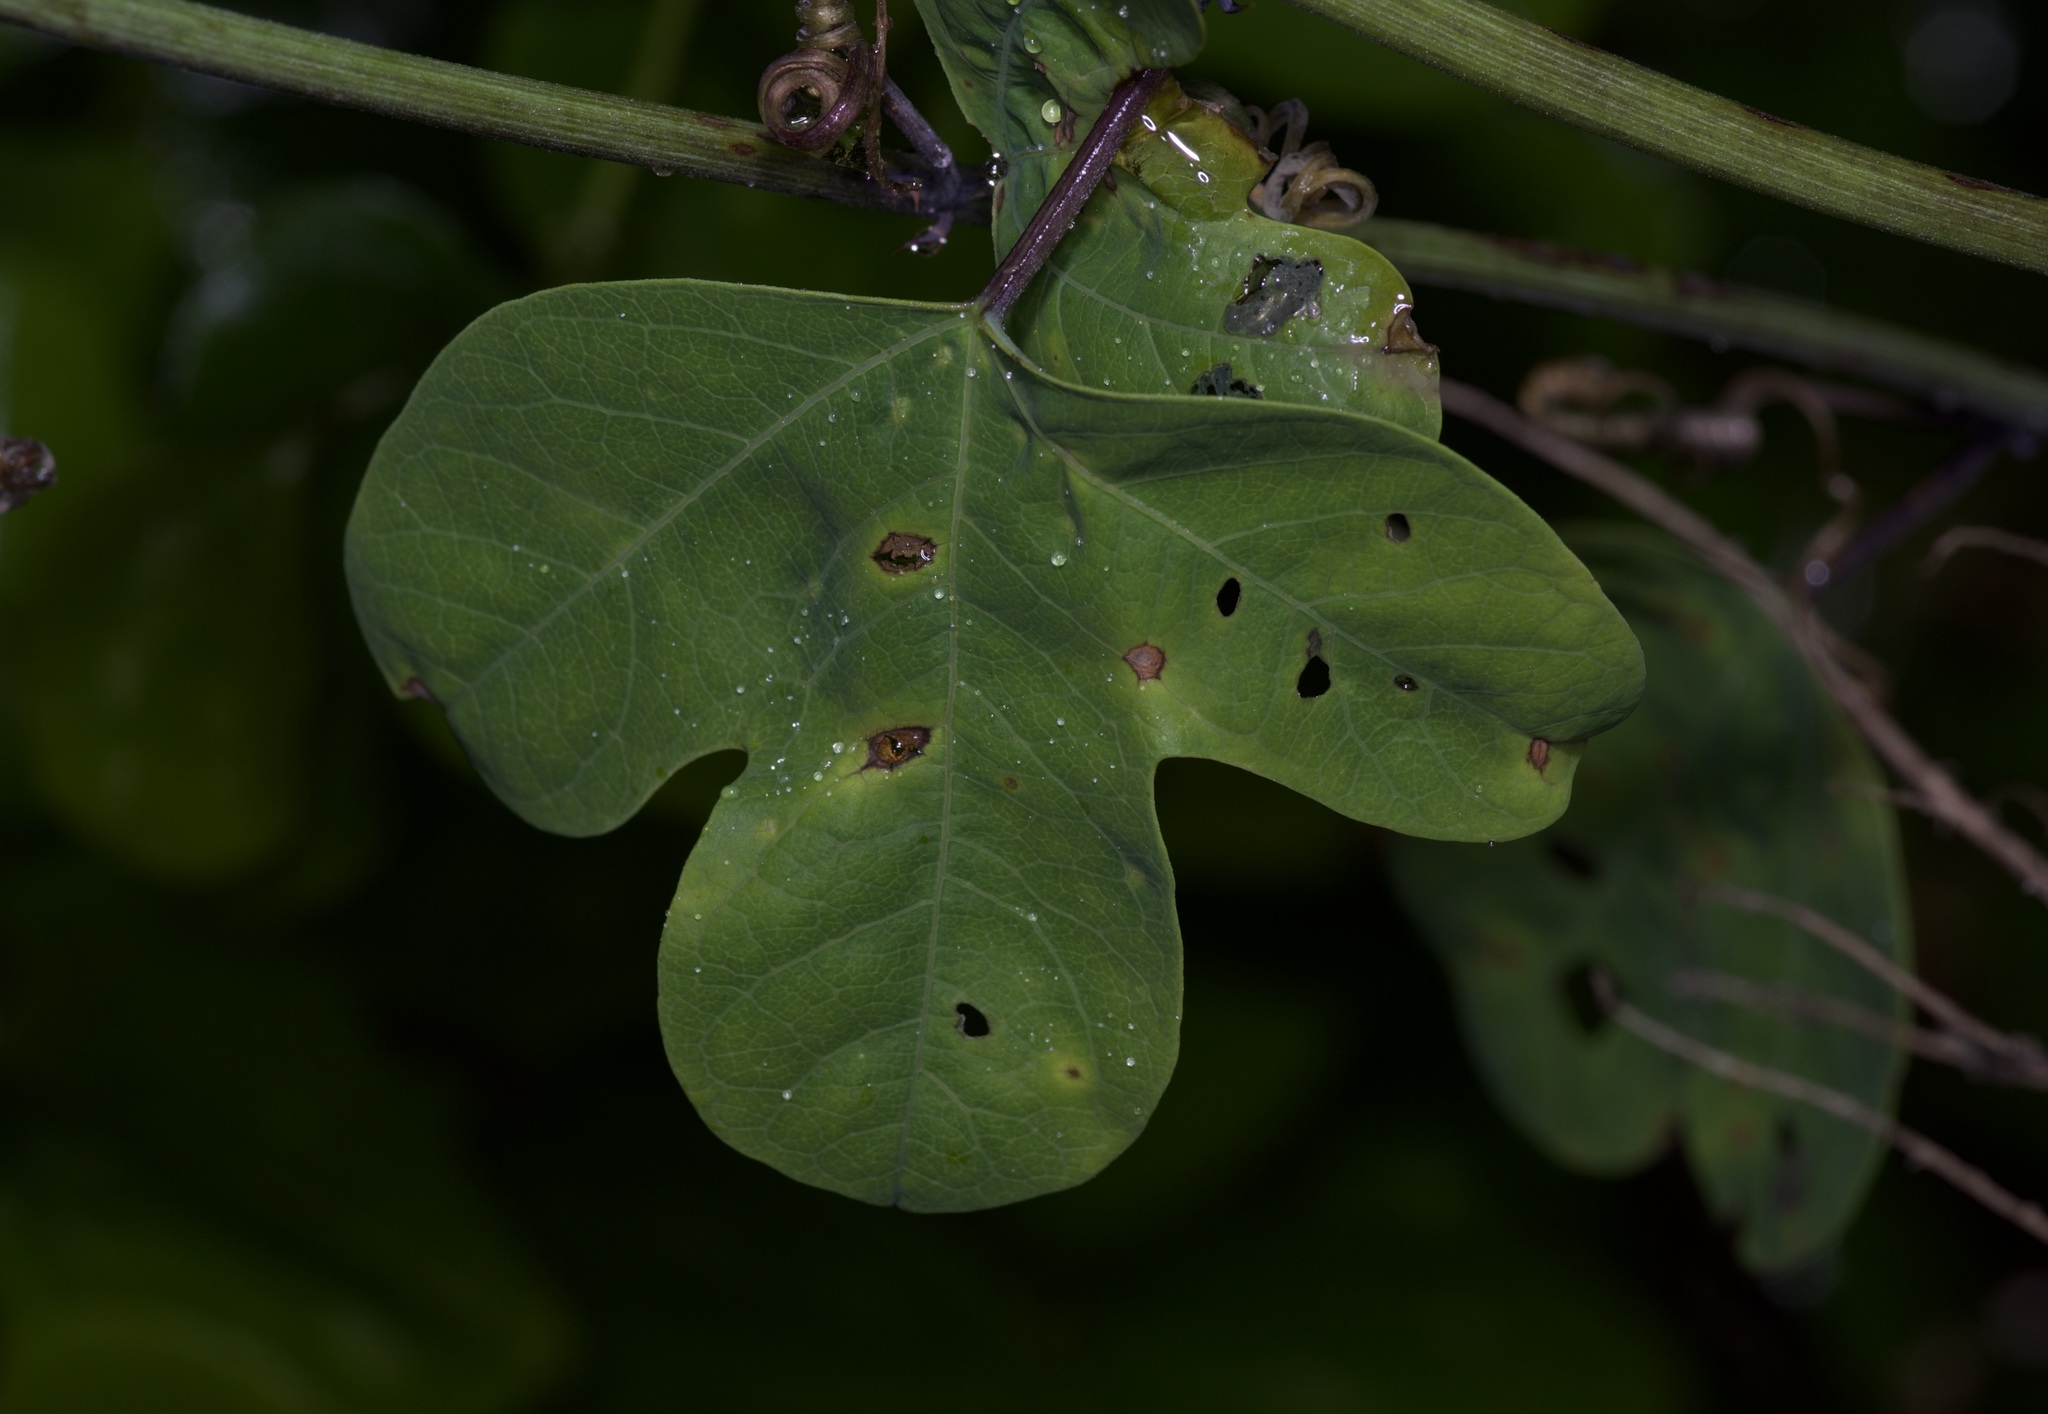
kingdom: Plantae
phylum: Tracheophyta
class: Magnoliopsida
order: Malpighiales
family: Passifloraceae
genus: Passiflora
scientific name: Passiflora affinis
